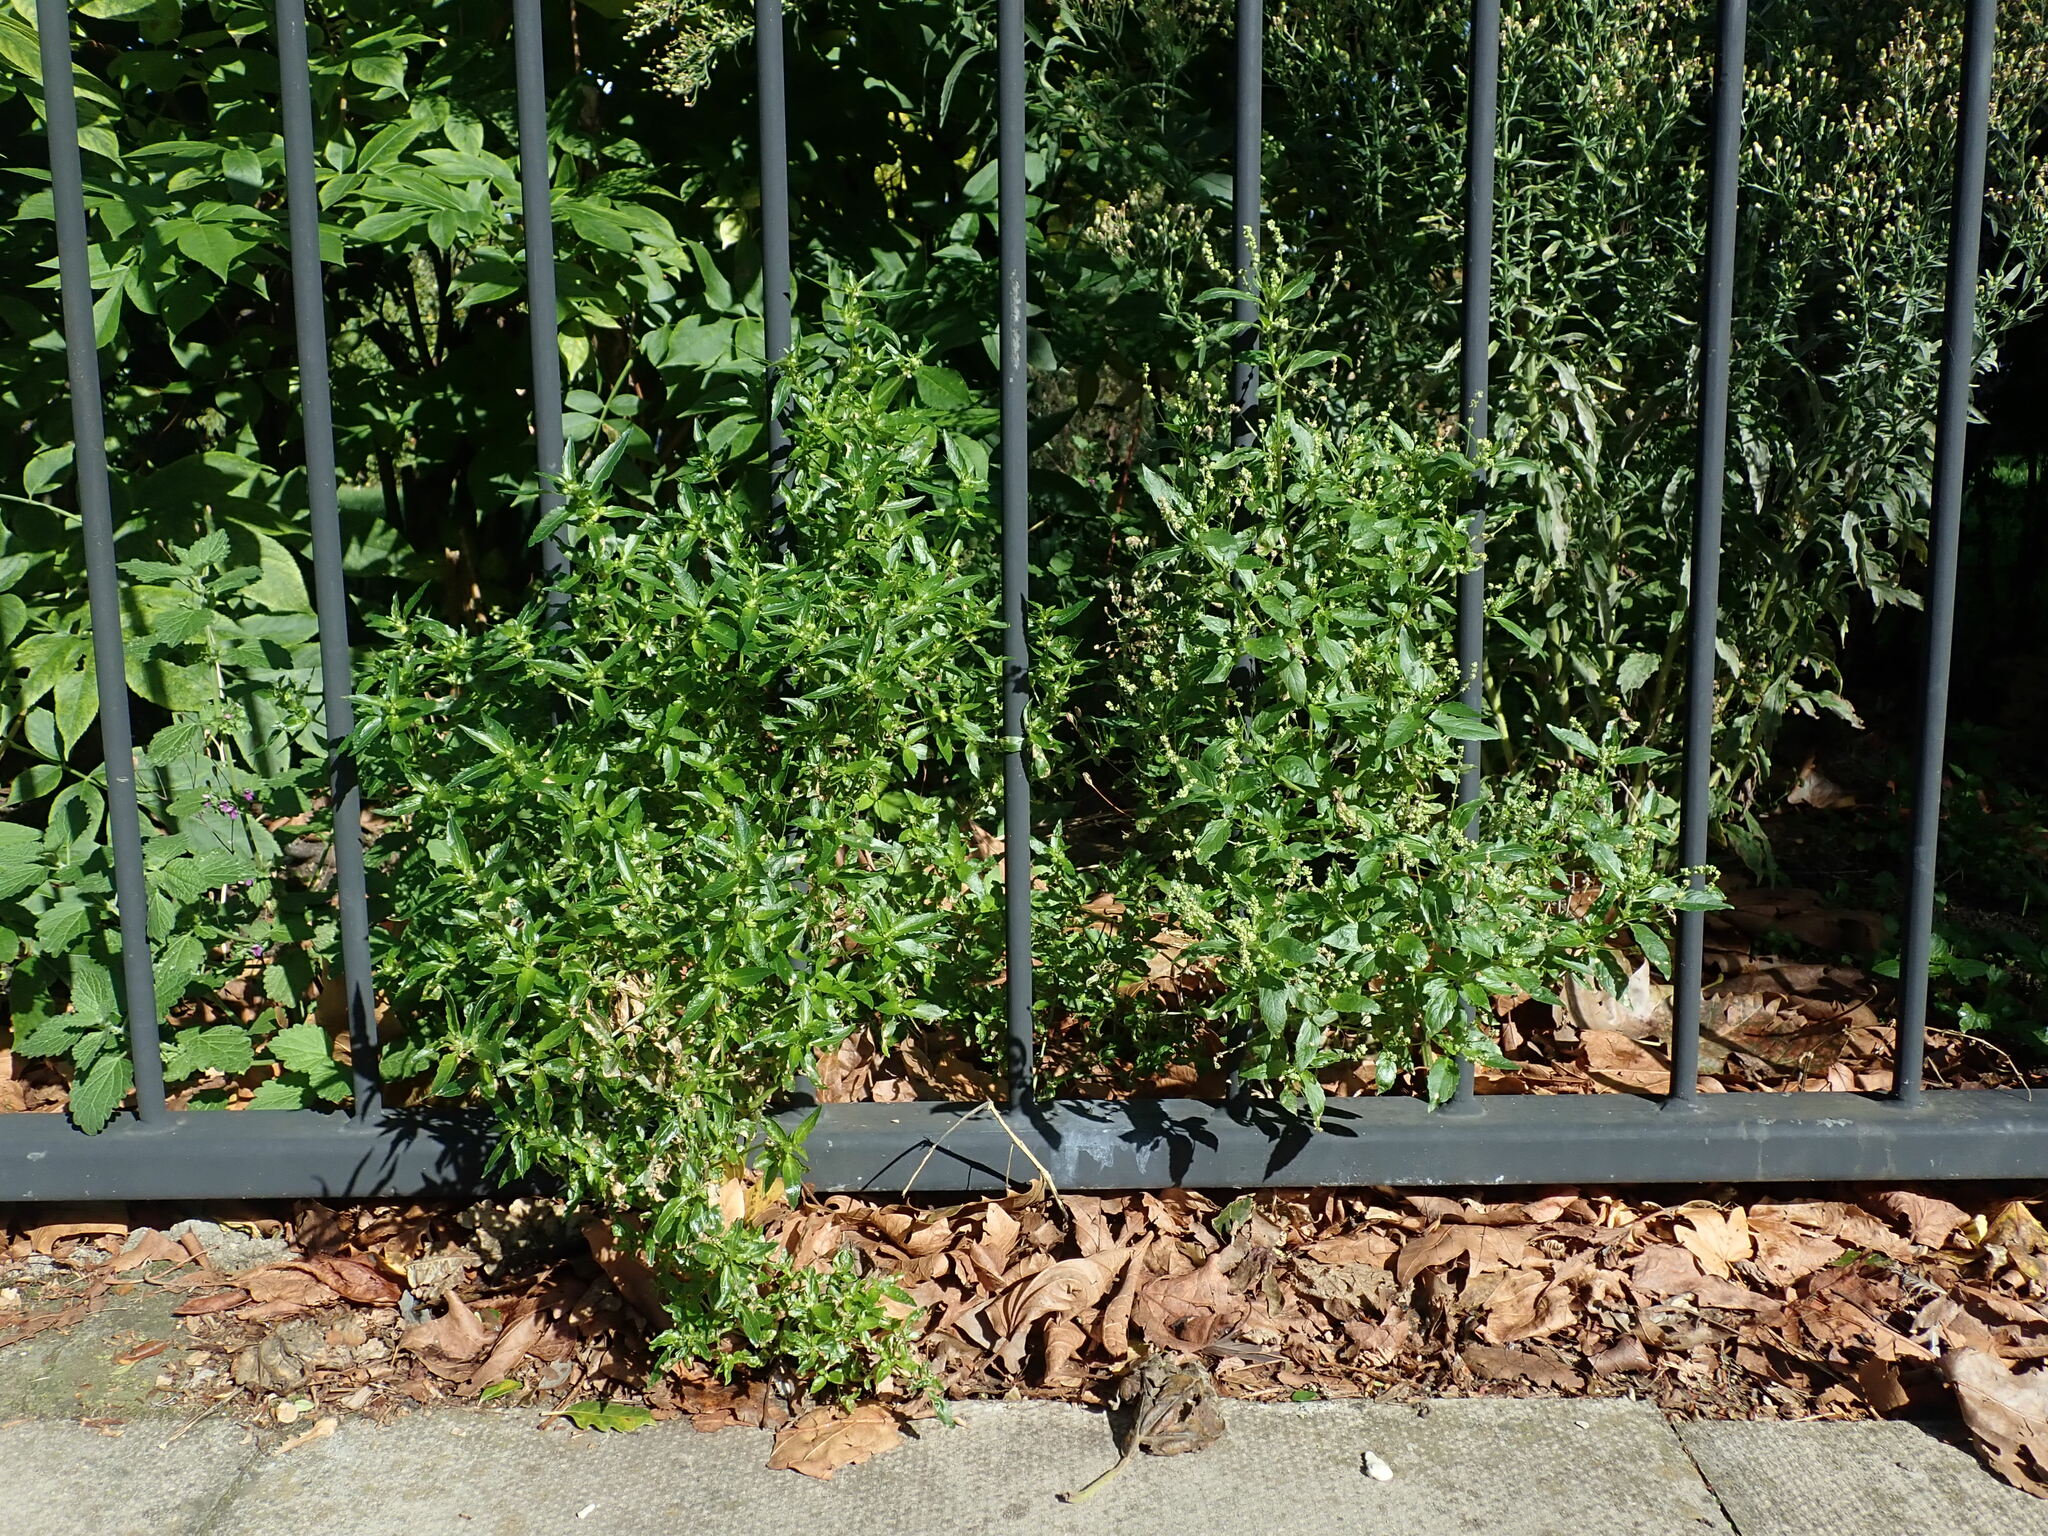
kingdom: Plantae
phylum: Tracheophyta
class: Magnoliopsida
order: Malpighiales
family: Euphorbiaceae
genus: Mercurialis
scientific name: Mercurialis annua
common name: Annual mercury
